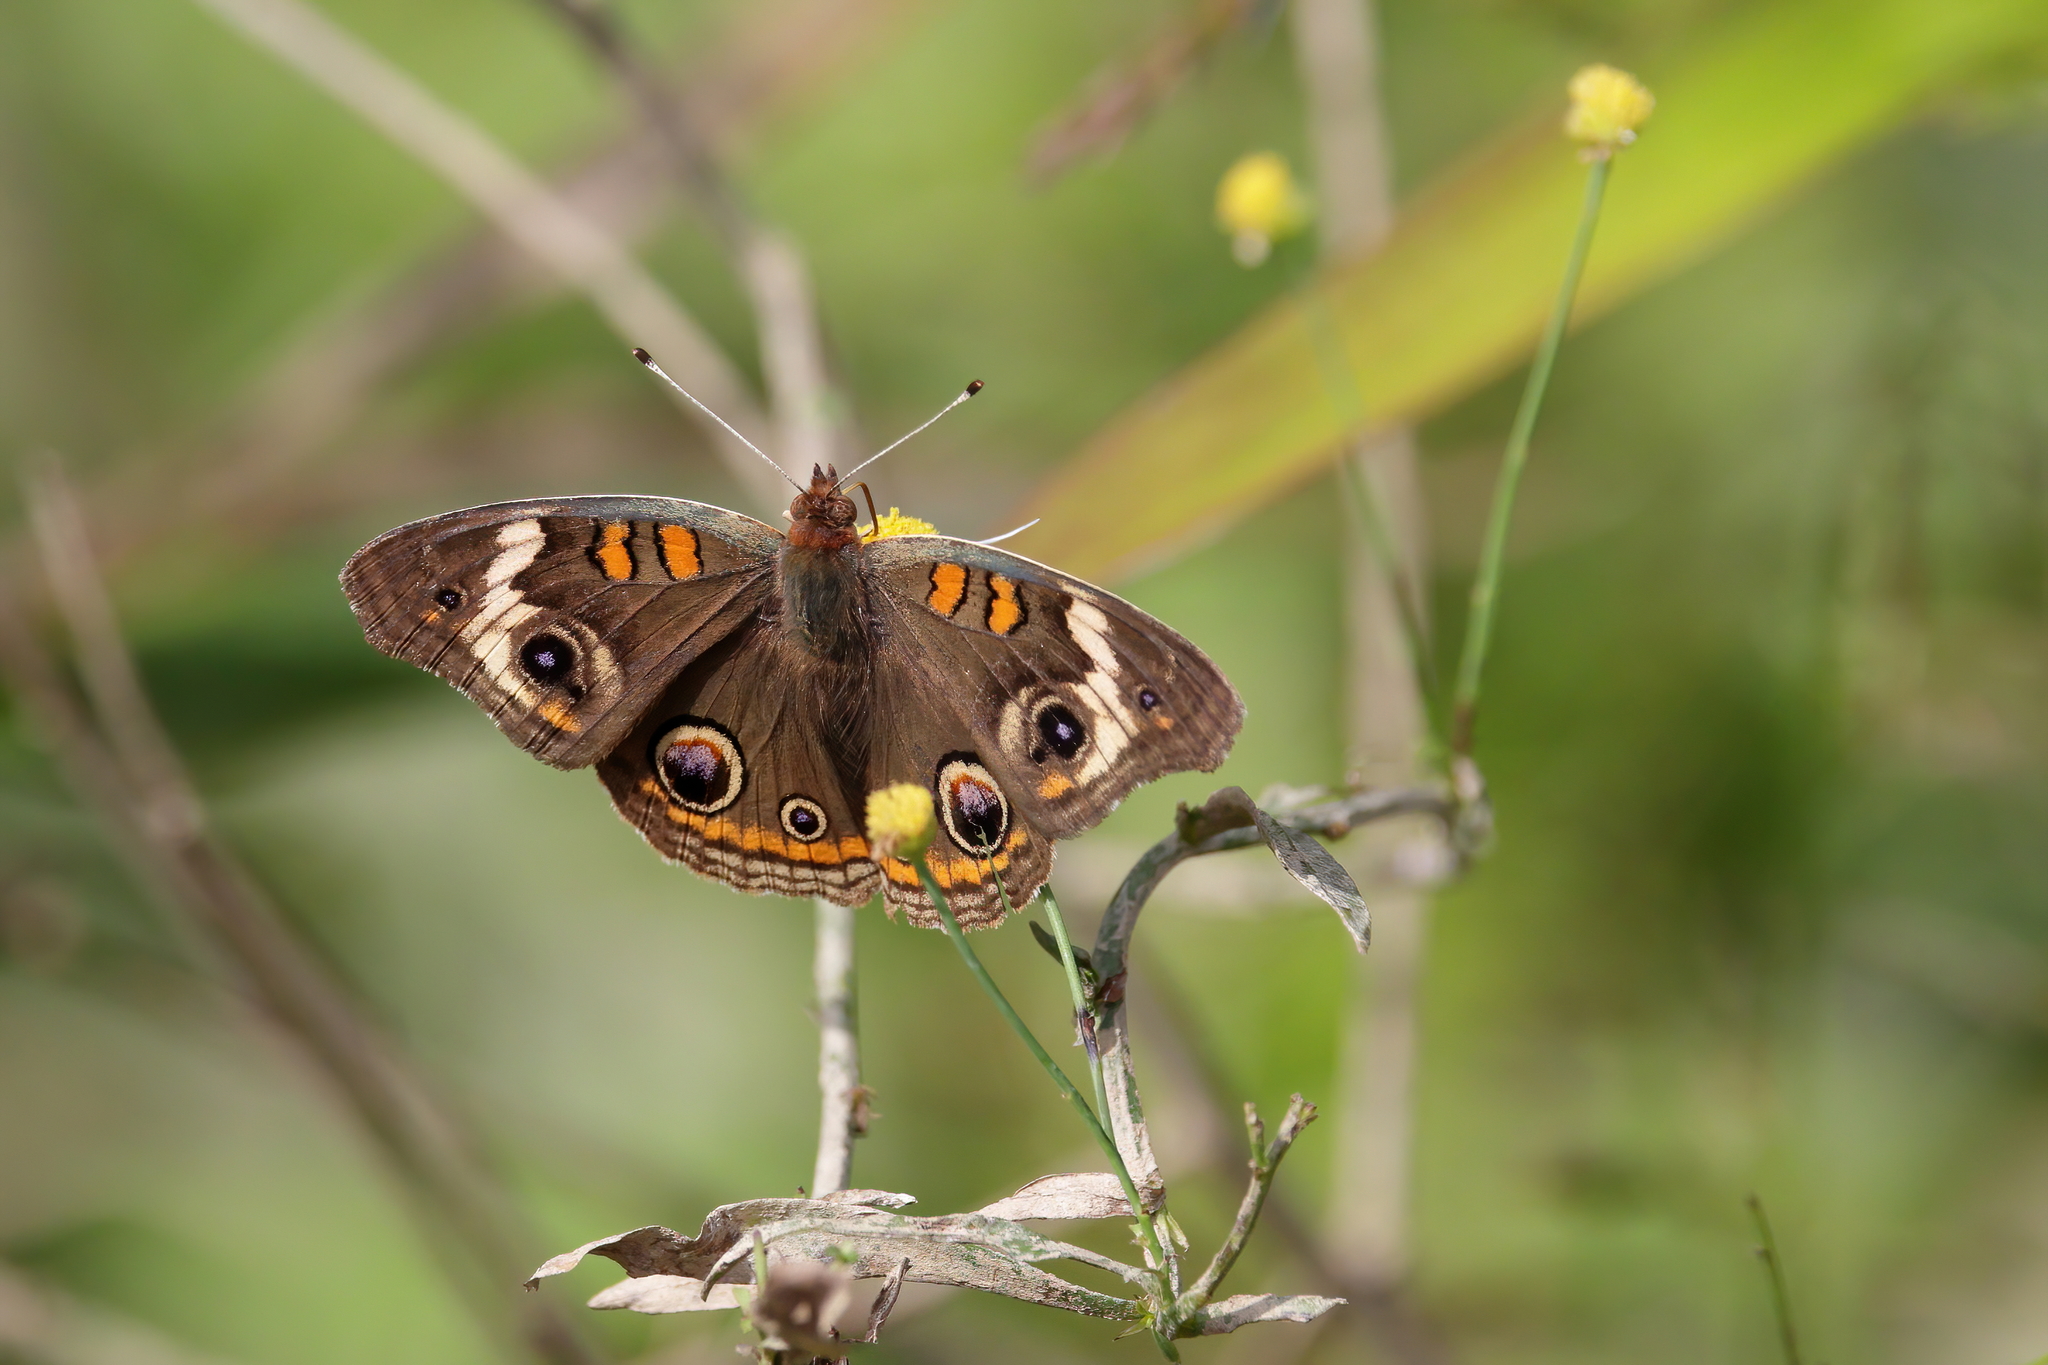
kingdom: Animalia
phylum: Arthropoda
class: Insecta
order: Lepidoptera
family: Nymphalidae
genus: Junonia
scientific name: Junonia coenia
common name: Common buckeye
